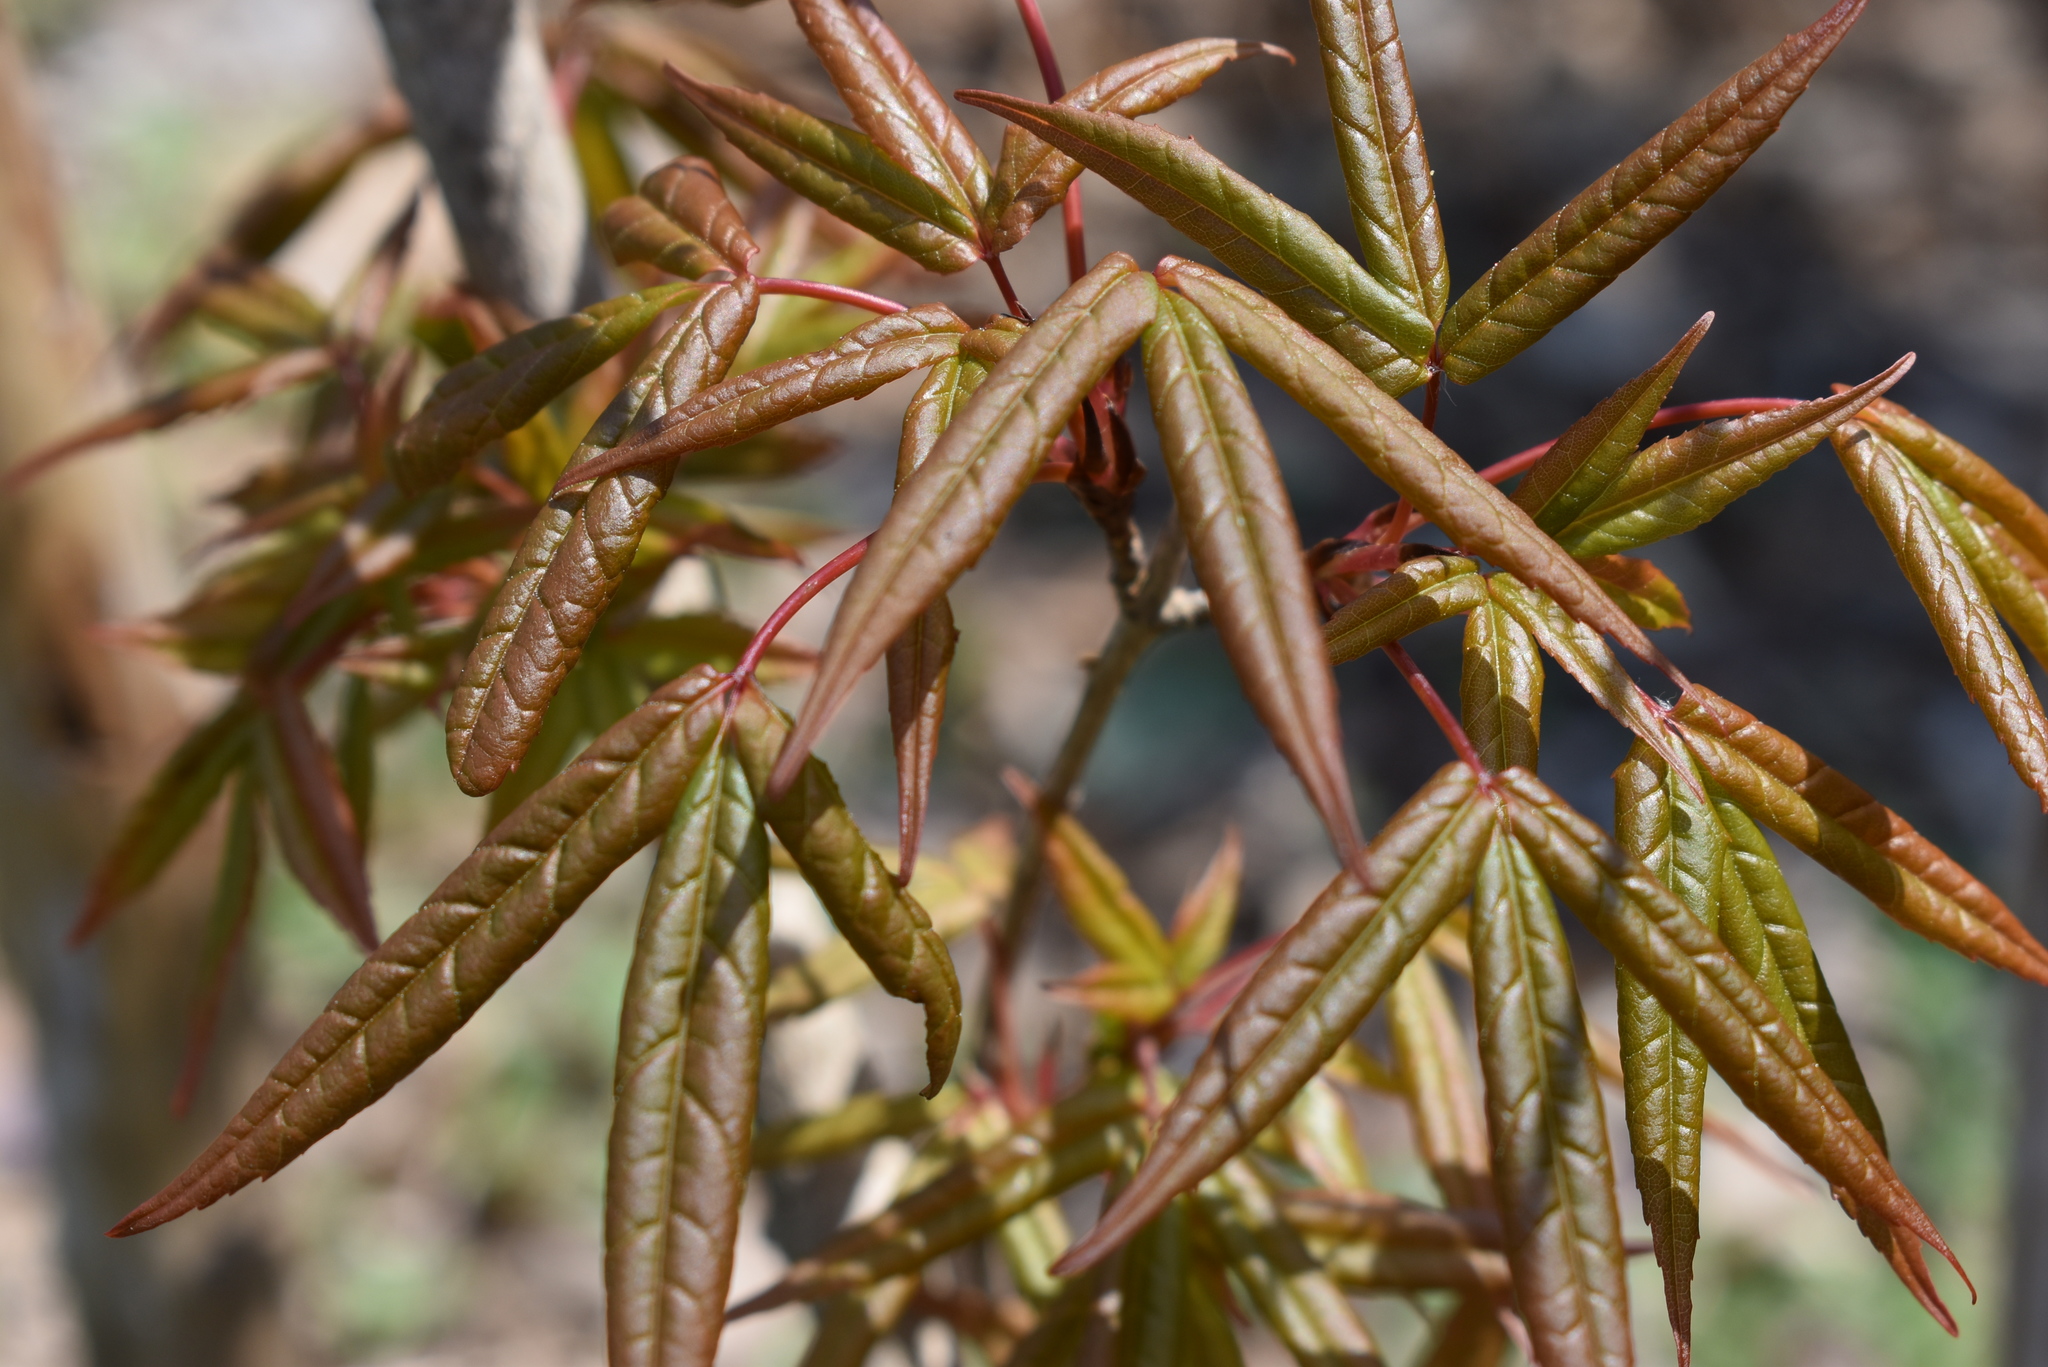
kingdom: Plantae
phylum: Tracheophyta
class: Magnoliopsida
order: Sapindales
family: Sapindaceae
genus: Acer
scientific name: Acer mandshuricum
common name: Manchurian maple
